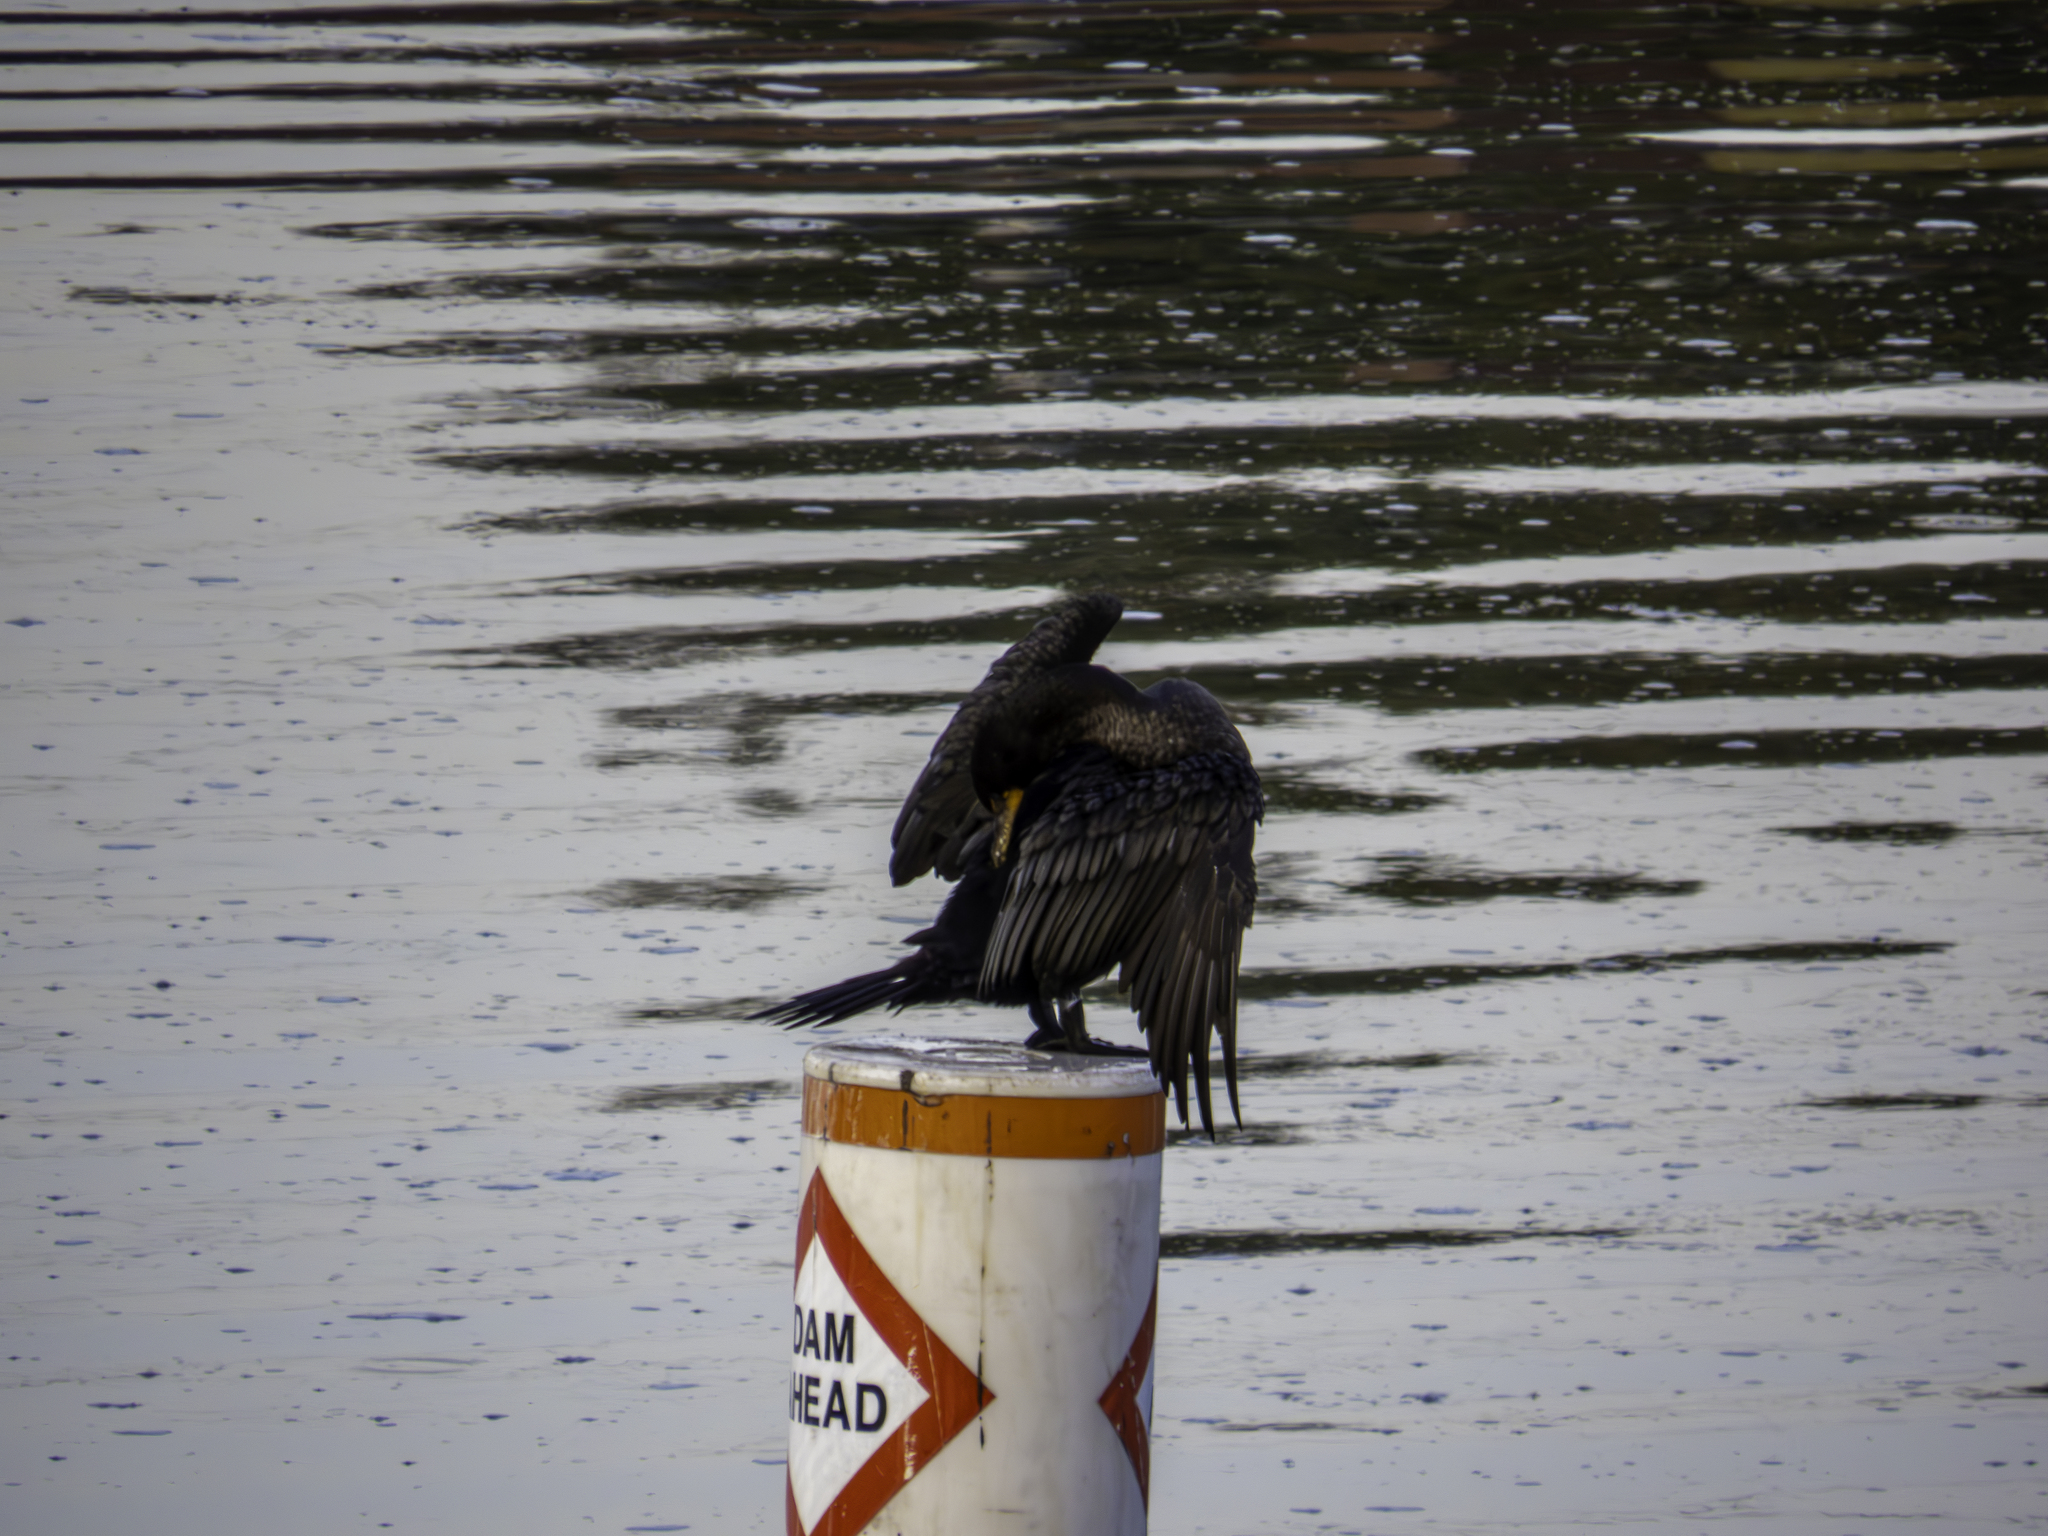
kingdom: Animalia
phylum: Chordata
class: Aves
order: Suliformes
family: Phalacrocoracidae
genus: Phalacrocorax
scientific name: Phalacrocorax auritus
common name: Double-crested cormorant
